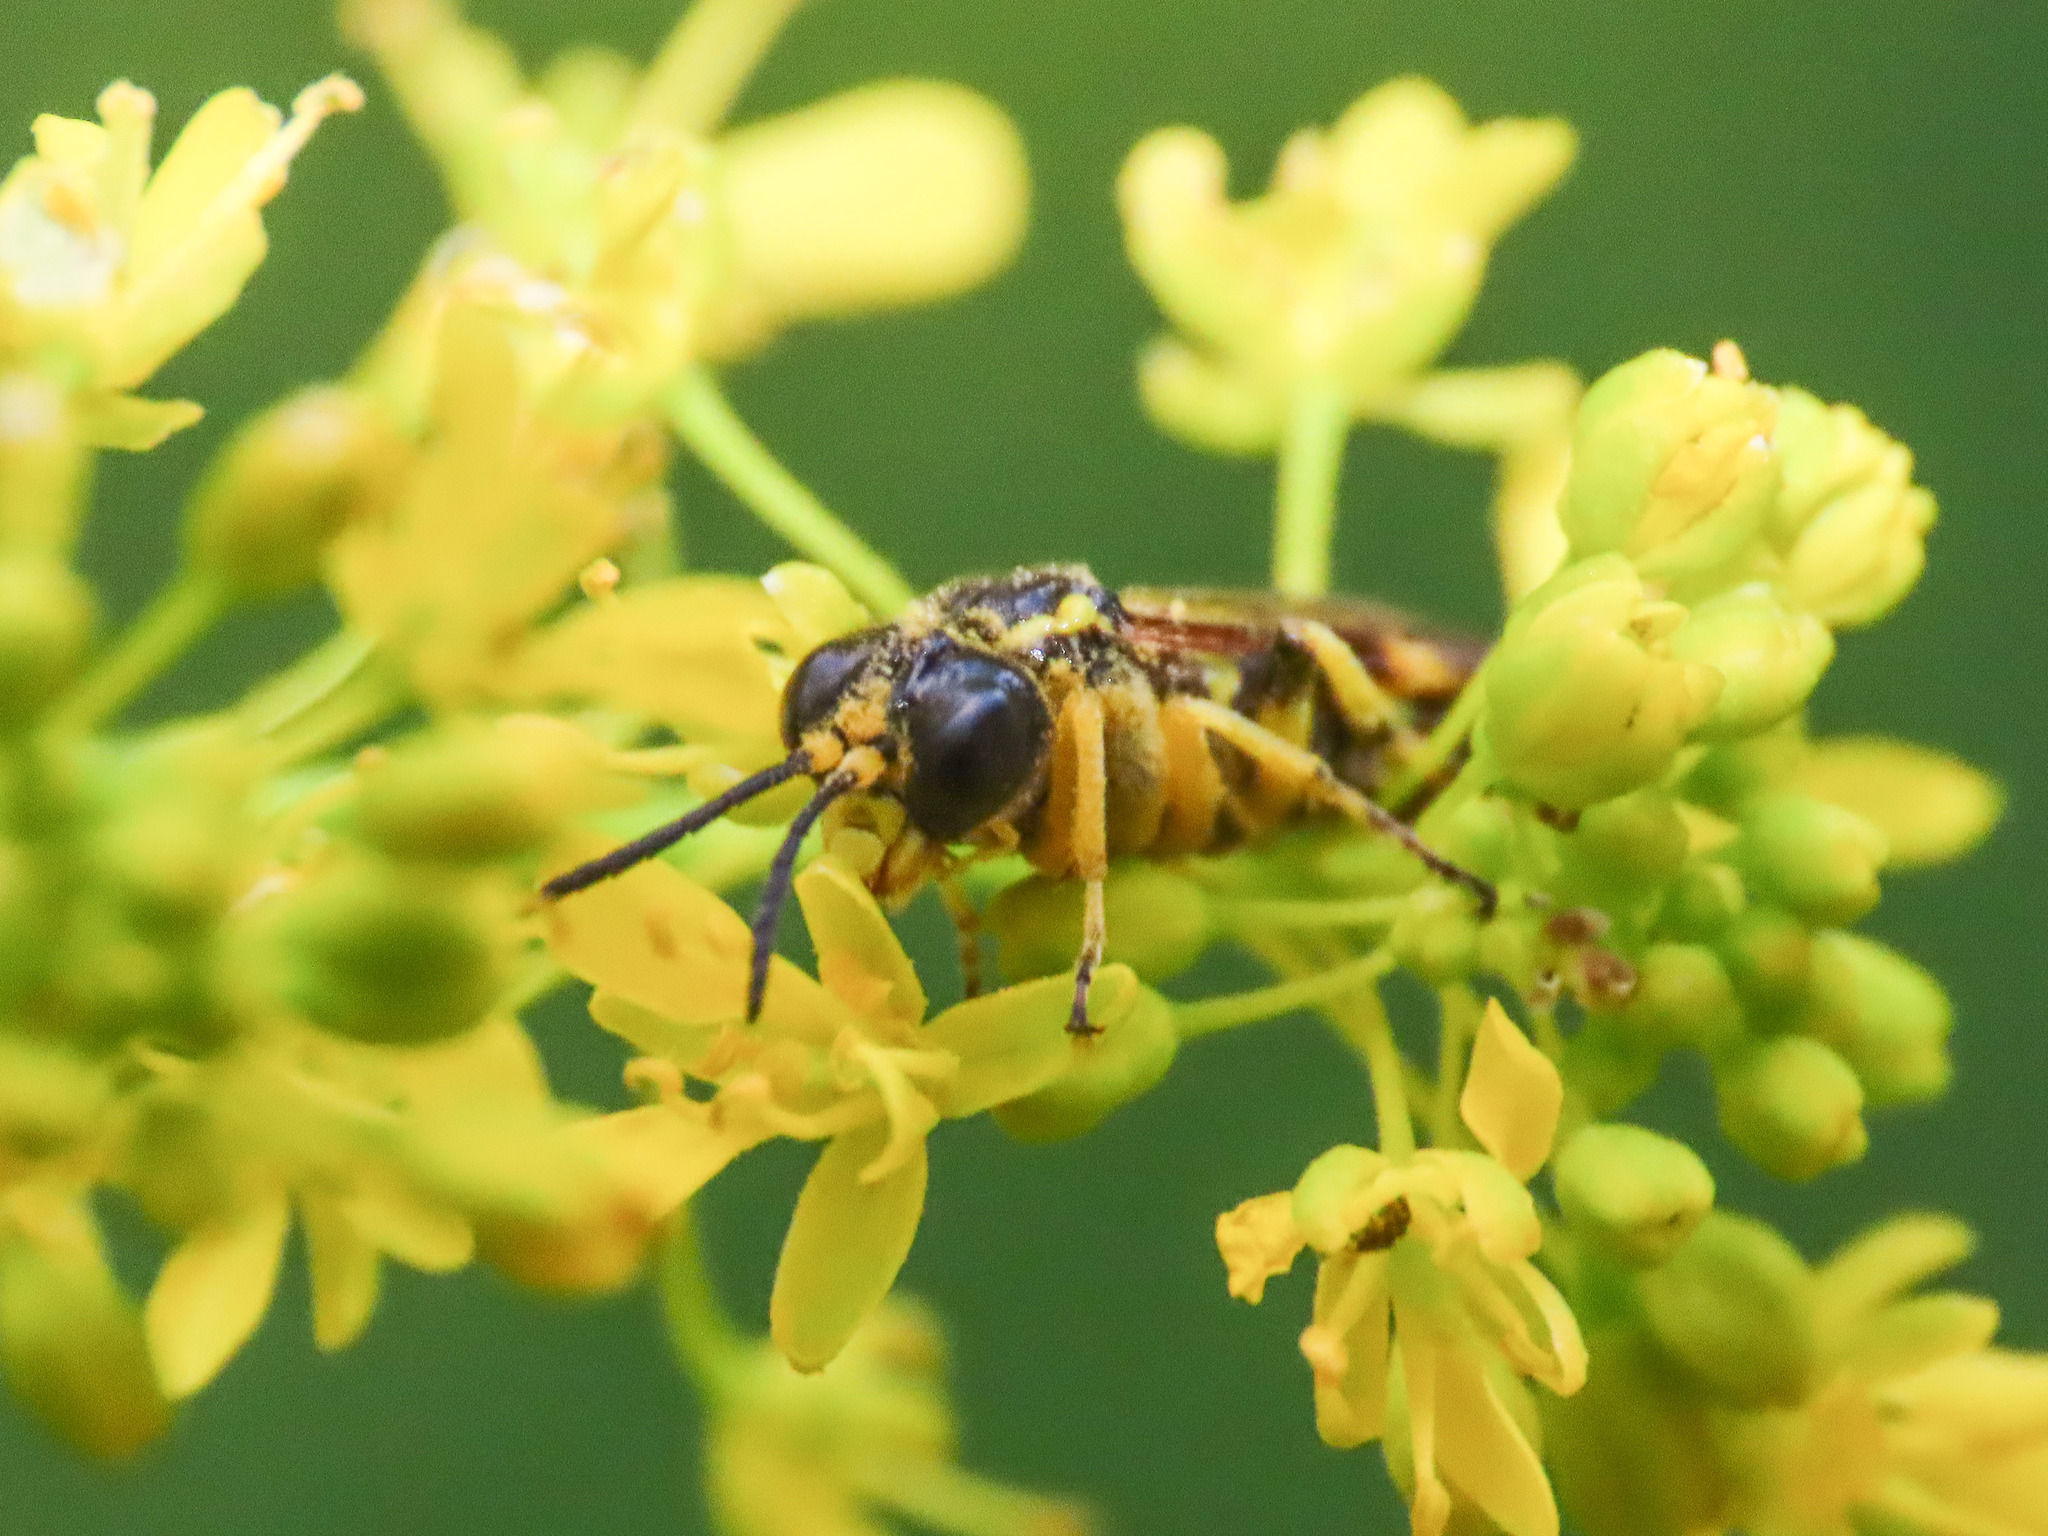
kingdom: Animalia
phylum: Arthropoda
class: Insecta
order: Hymenoptera
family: Tenthredinidae
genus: Tenthredo
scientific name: Tenthredo zonula
